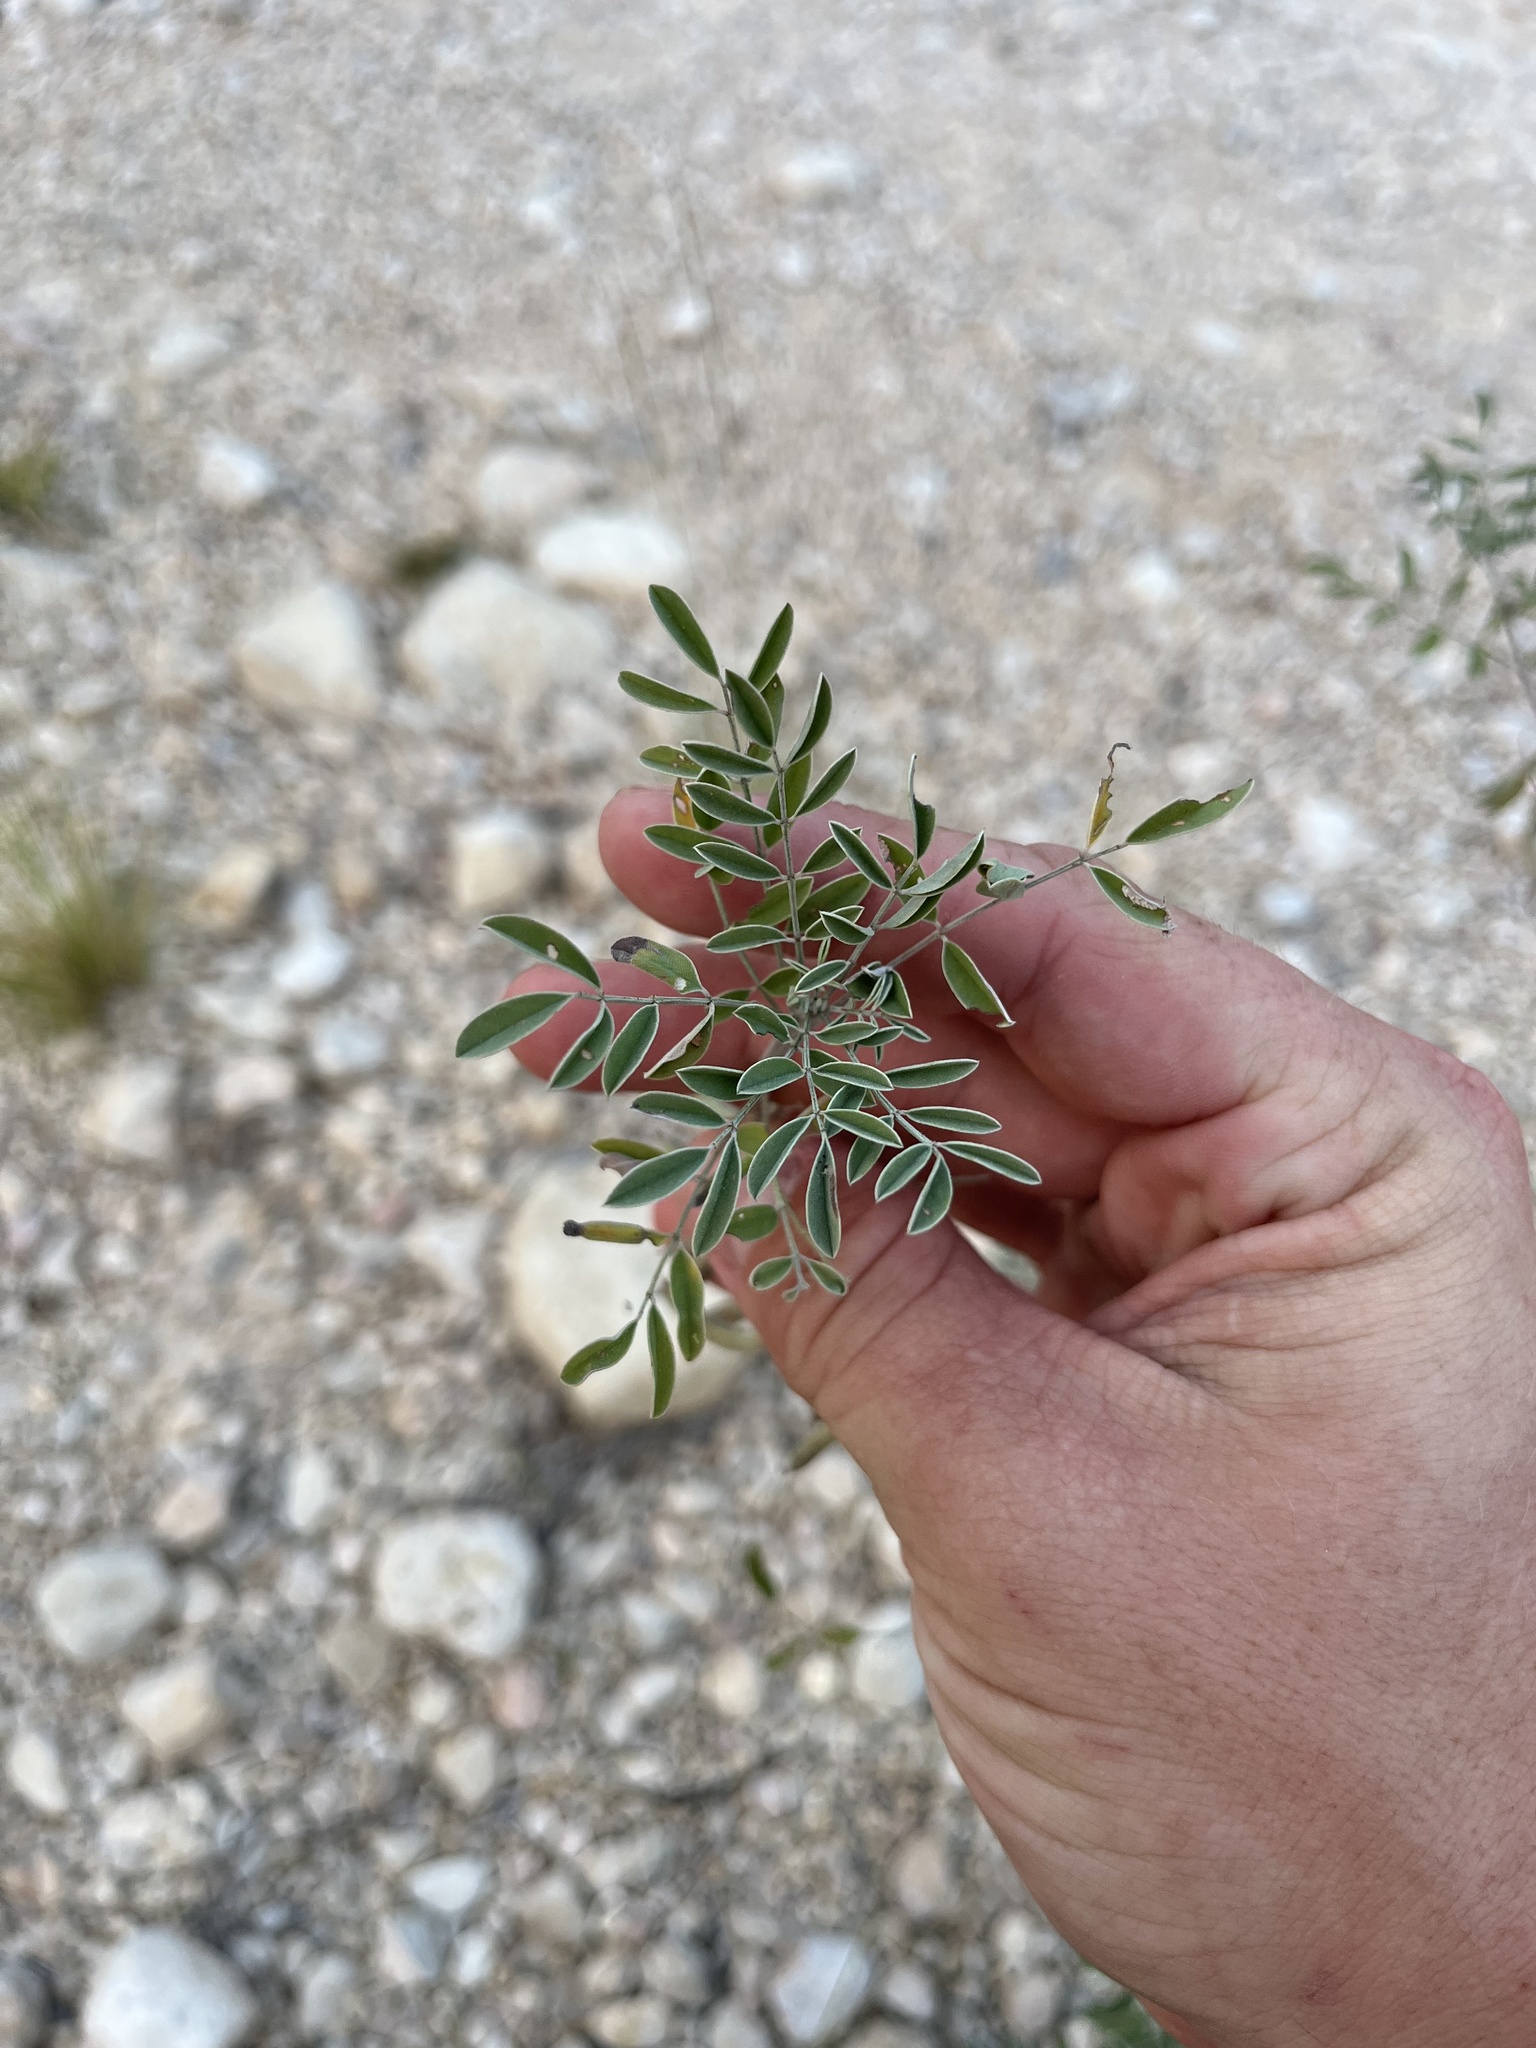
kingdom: Plantae
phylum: Tracheophyta
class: Magnoliopsida
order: Fabales
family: Fabaceae
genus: Indigofera
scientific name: Indigofera lindheimeriana
